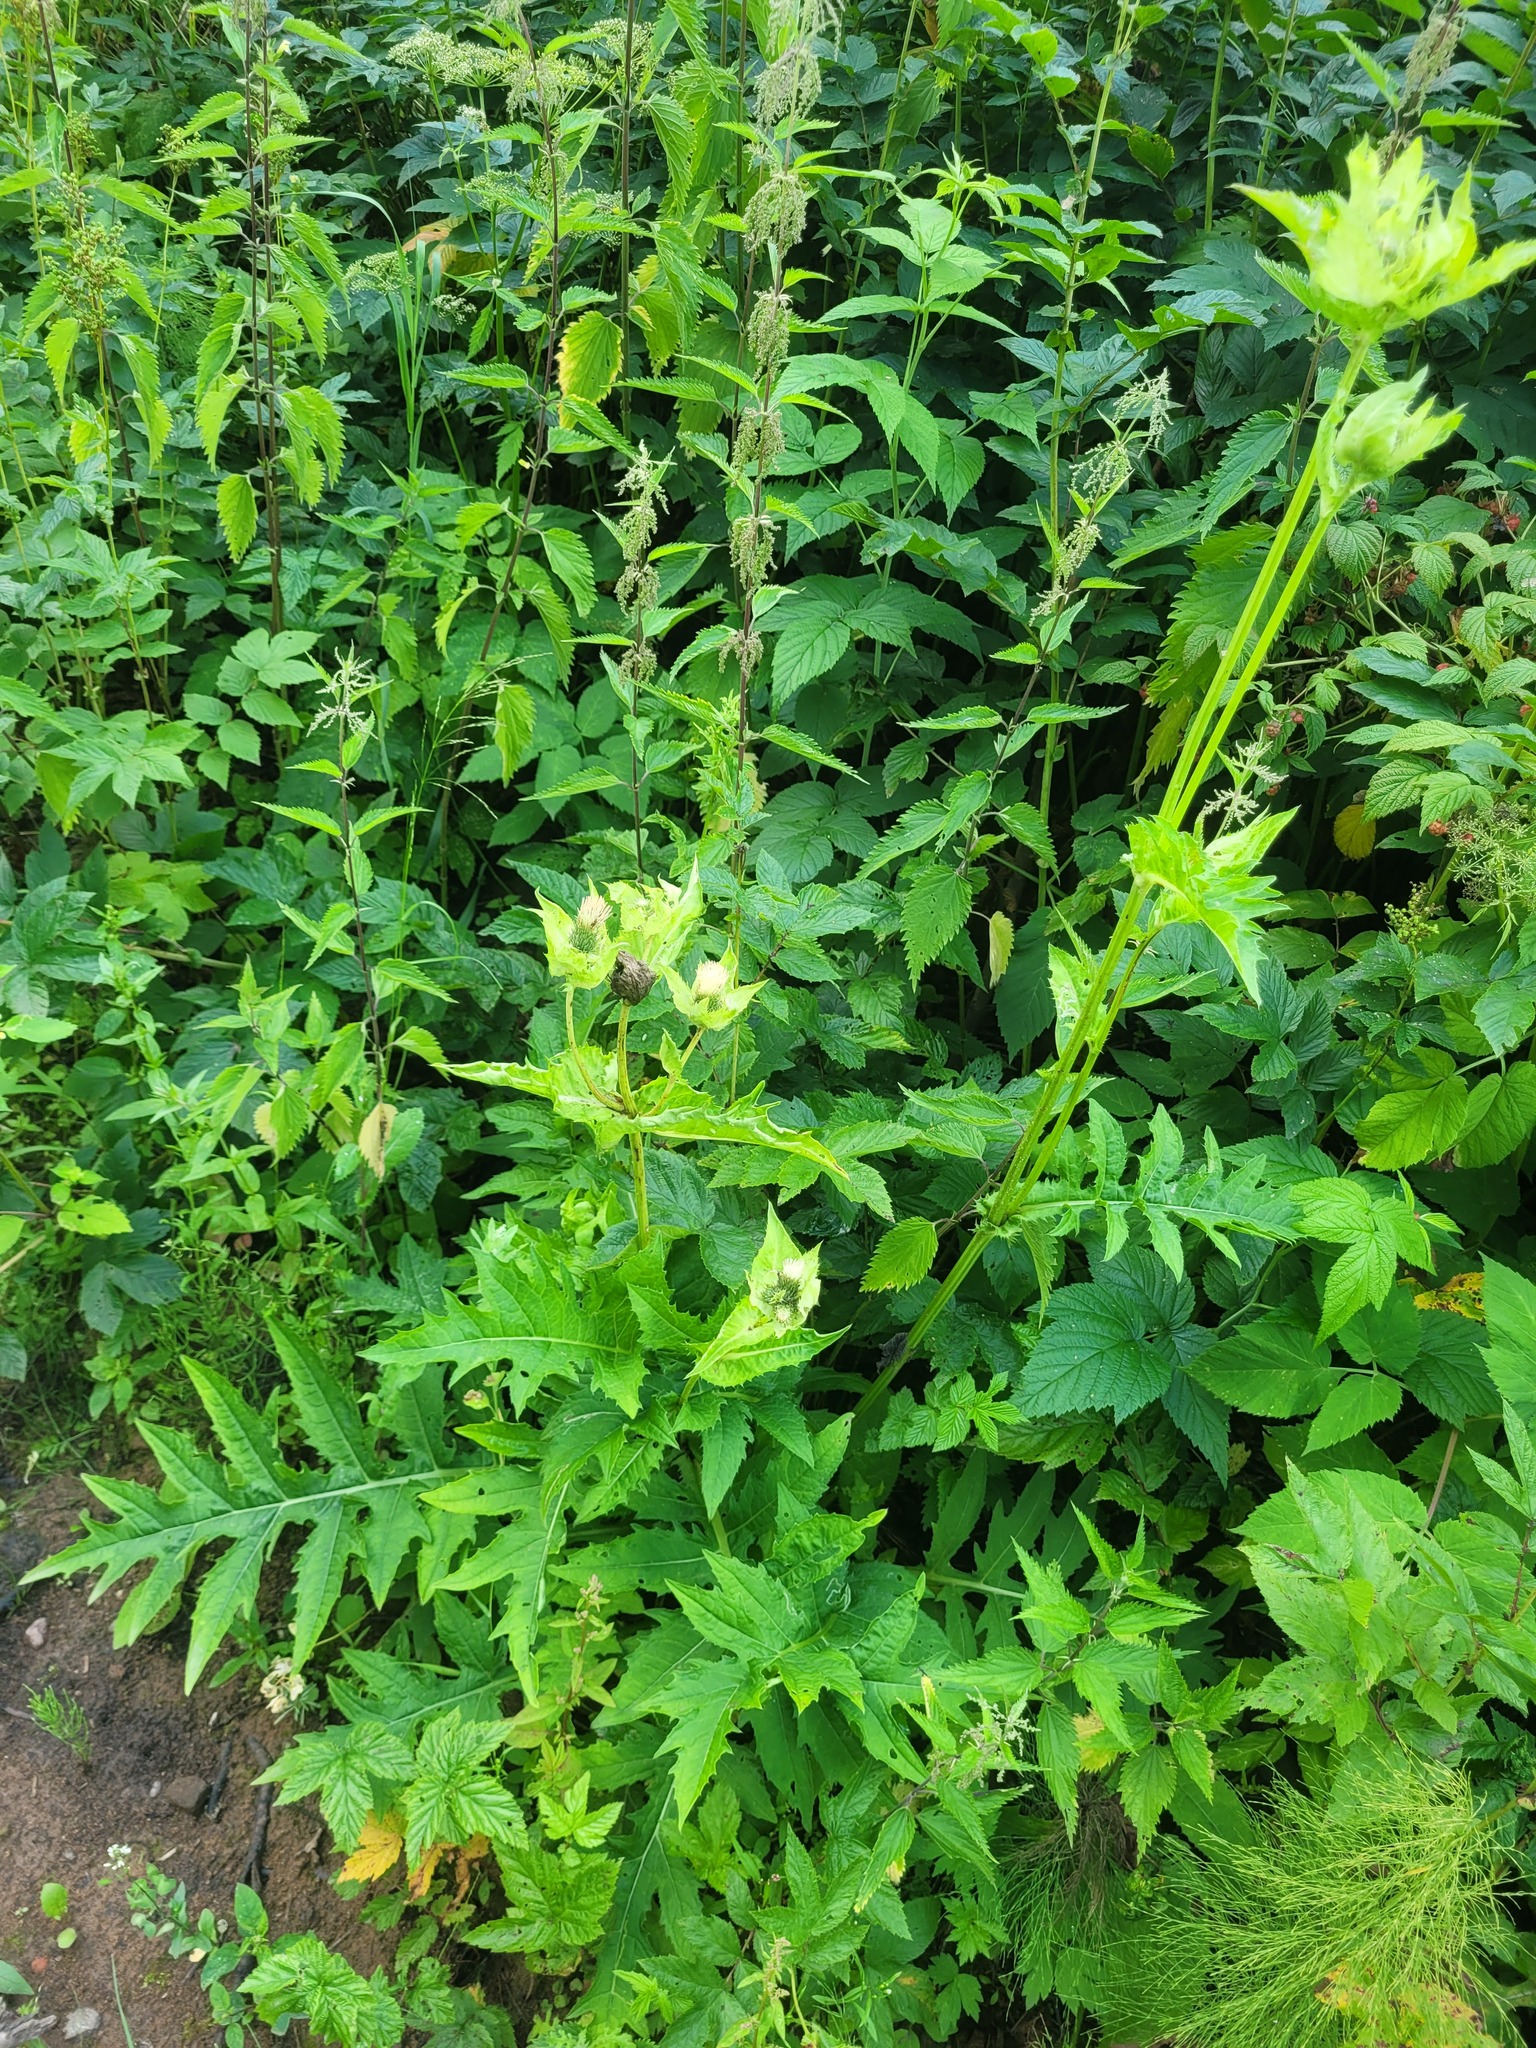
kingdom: Plantae
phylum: Tracheophyta
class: Magnoliopsida
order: Asterales
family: Asteraceae
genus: Cirsium
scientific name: Cirsium oleraceum
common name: Cabbage thistle
